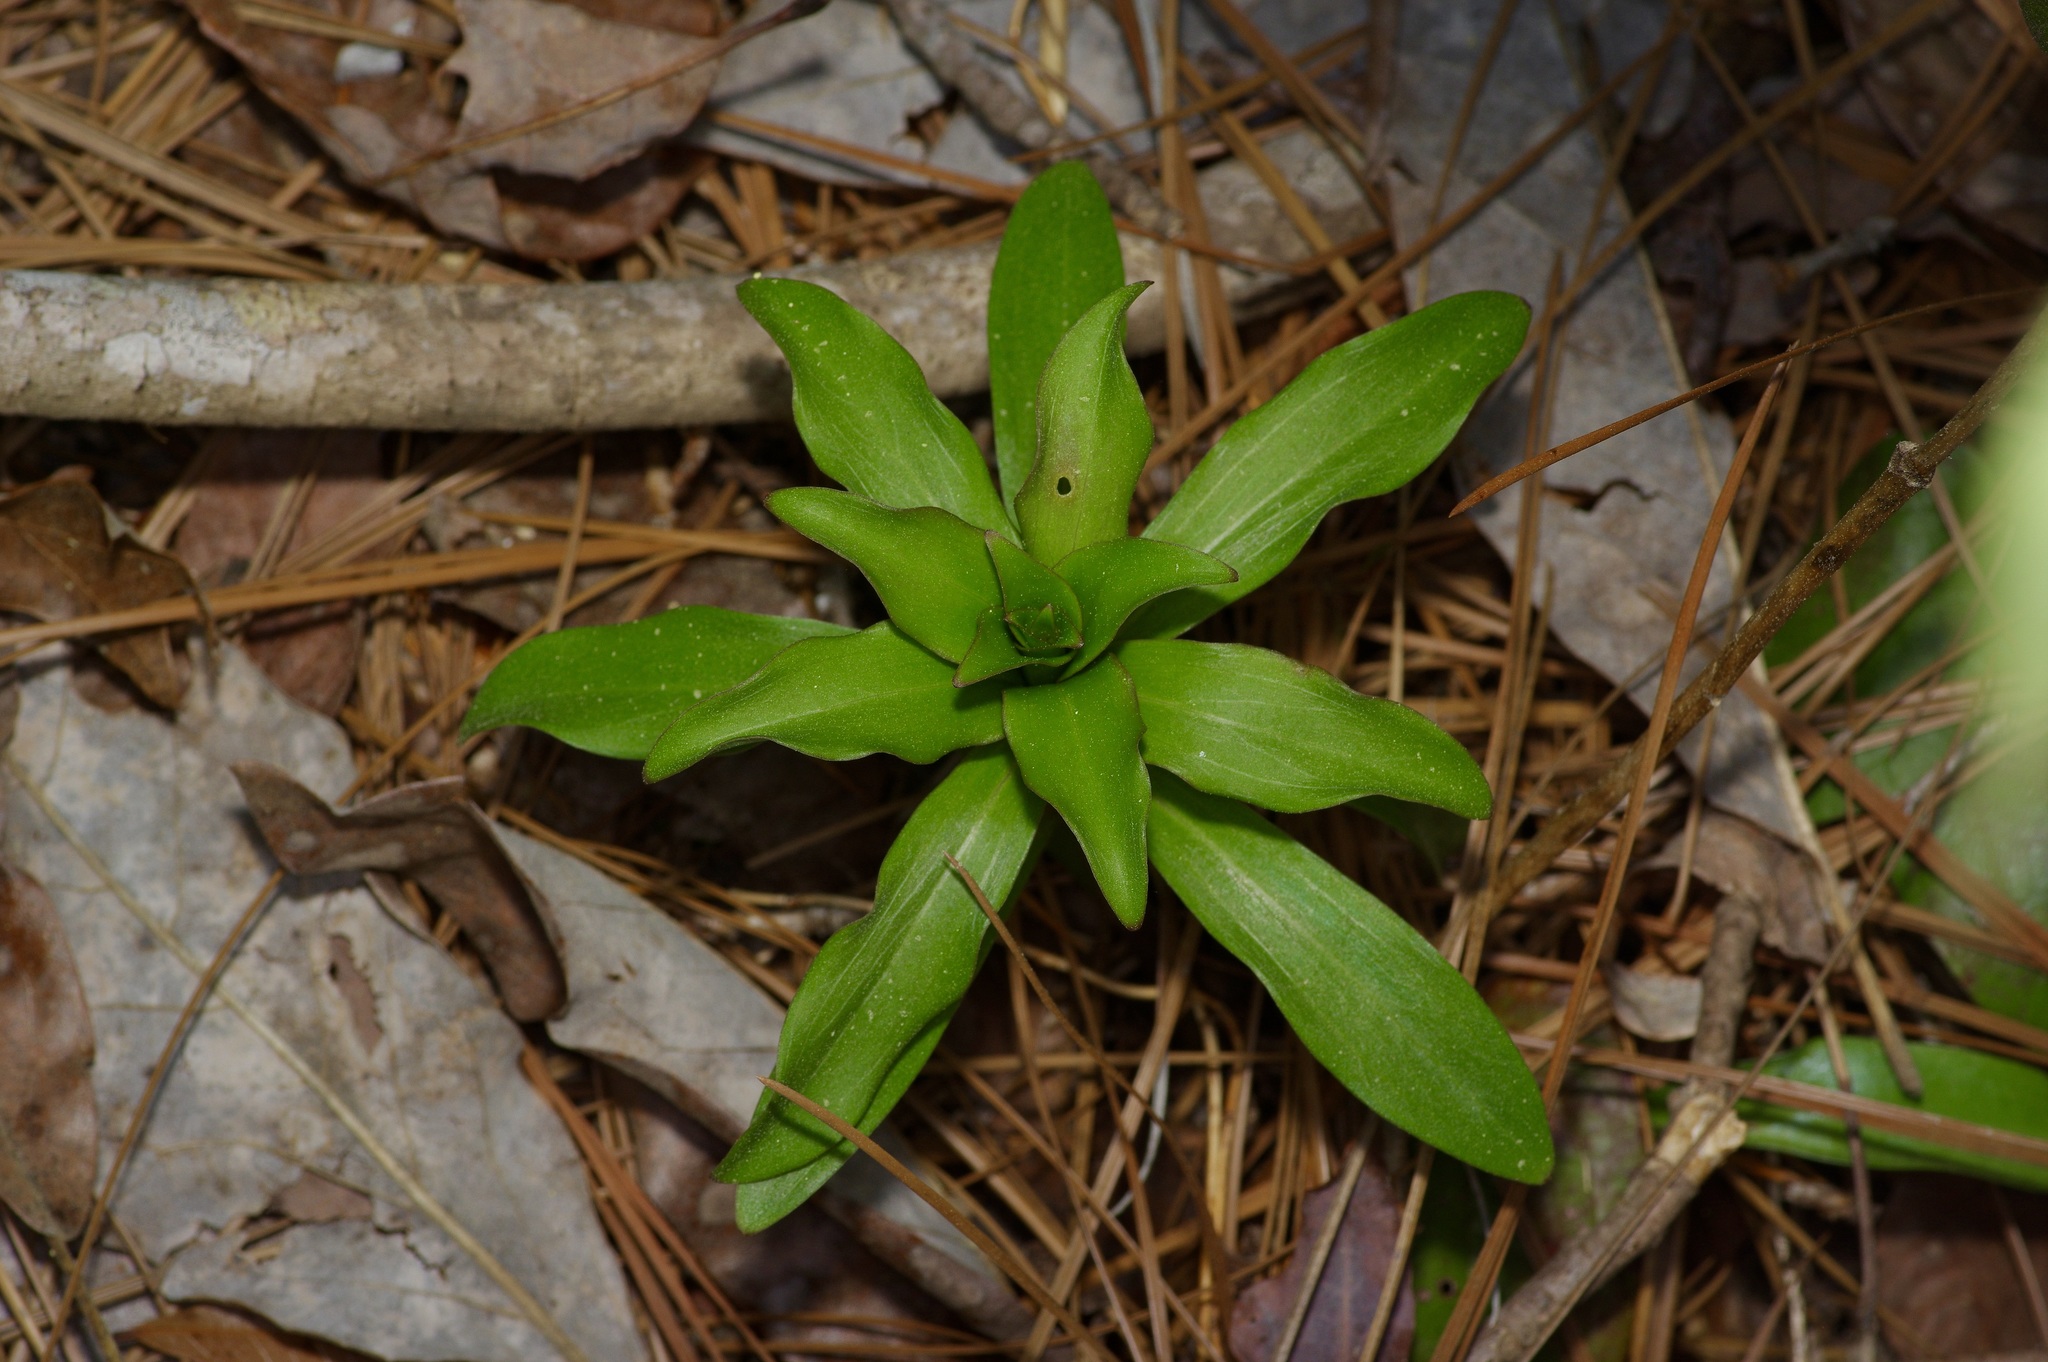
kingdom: Plantae
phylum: Tracheophyta
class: Liliopsida
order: Liliales
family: Liliaceae
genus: Lilium
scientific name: Lilium michauxii
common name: Carolina lily
